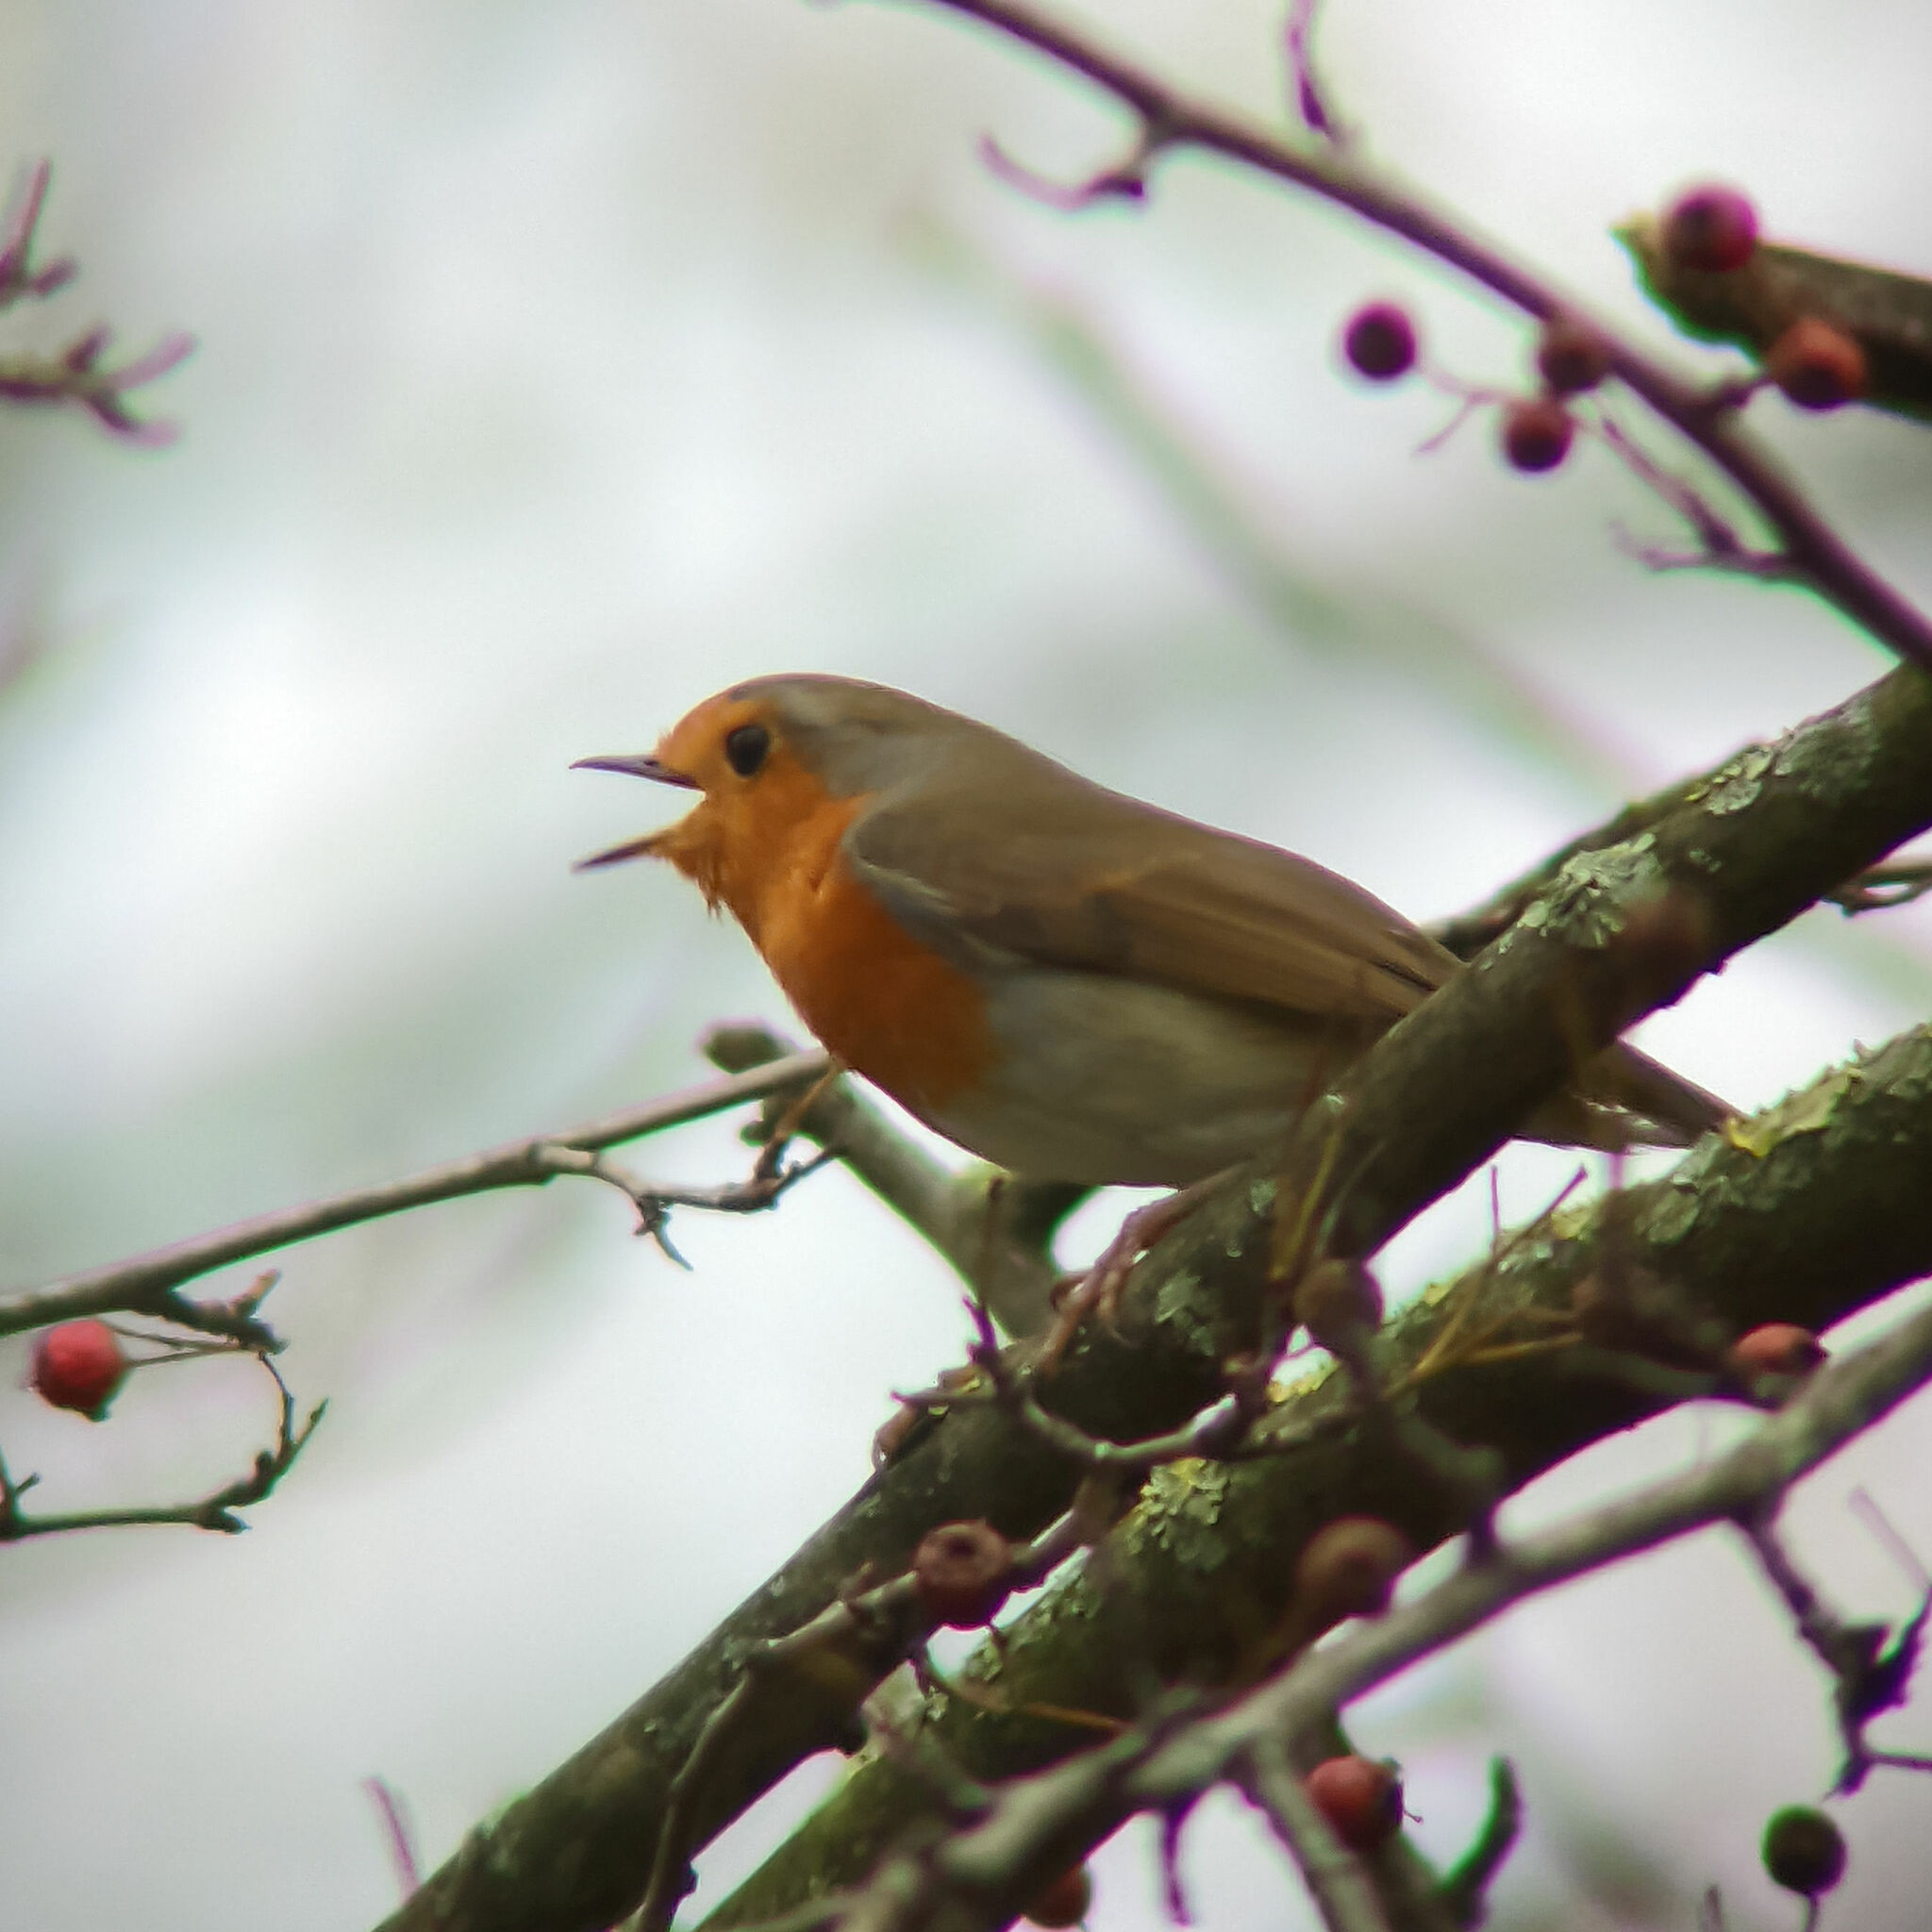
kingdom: Animalia
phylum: Chordata
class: Aves
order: Passeriformes
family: Muscicapidae
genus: Erithacus
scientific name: Erithacus rubecula
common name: European robin
